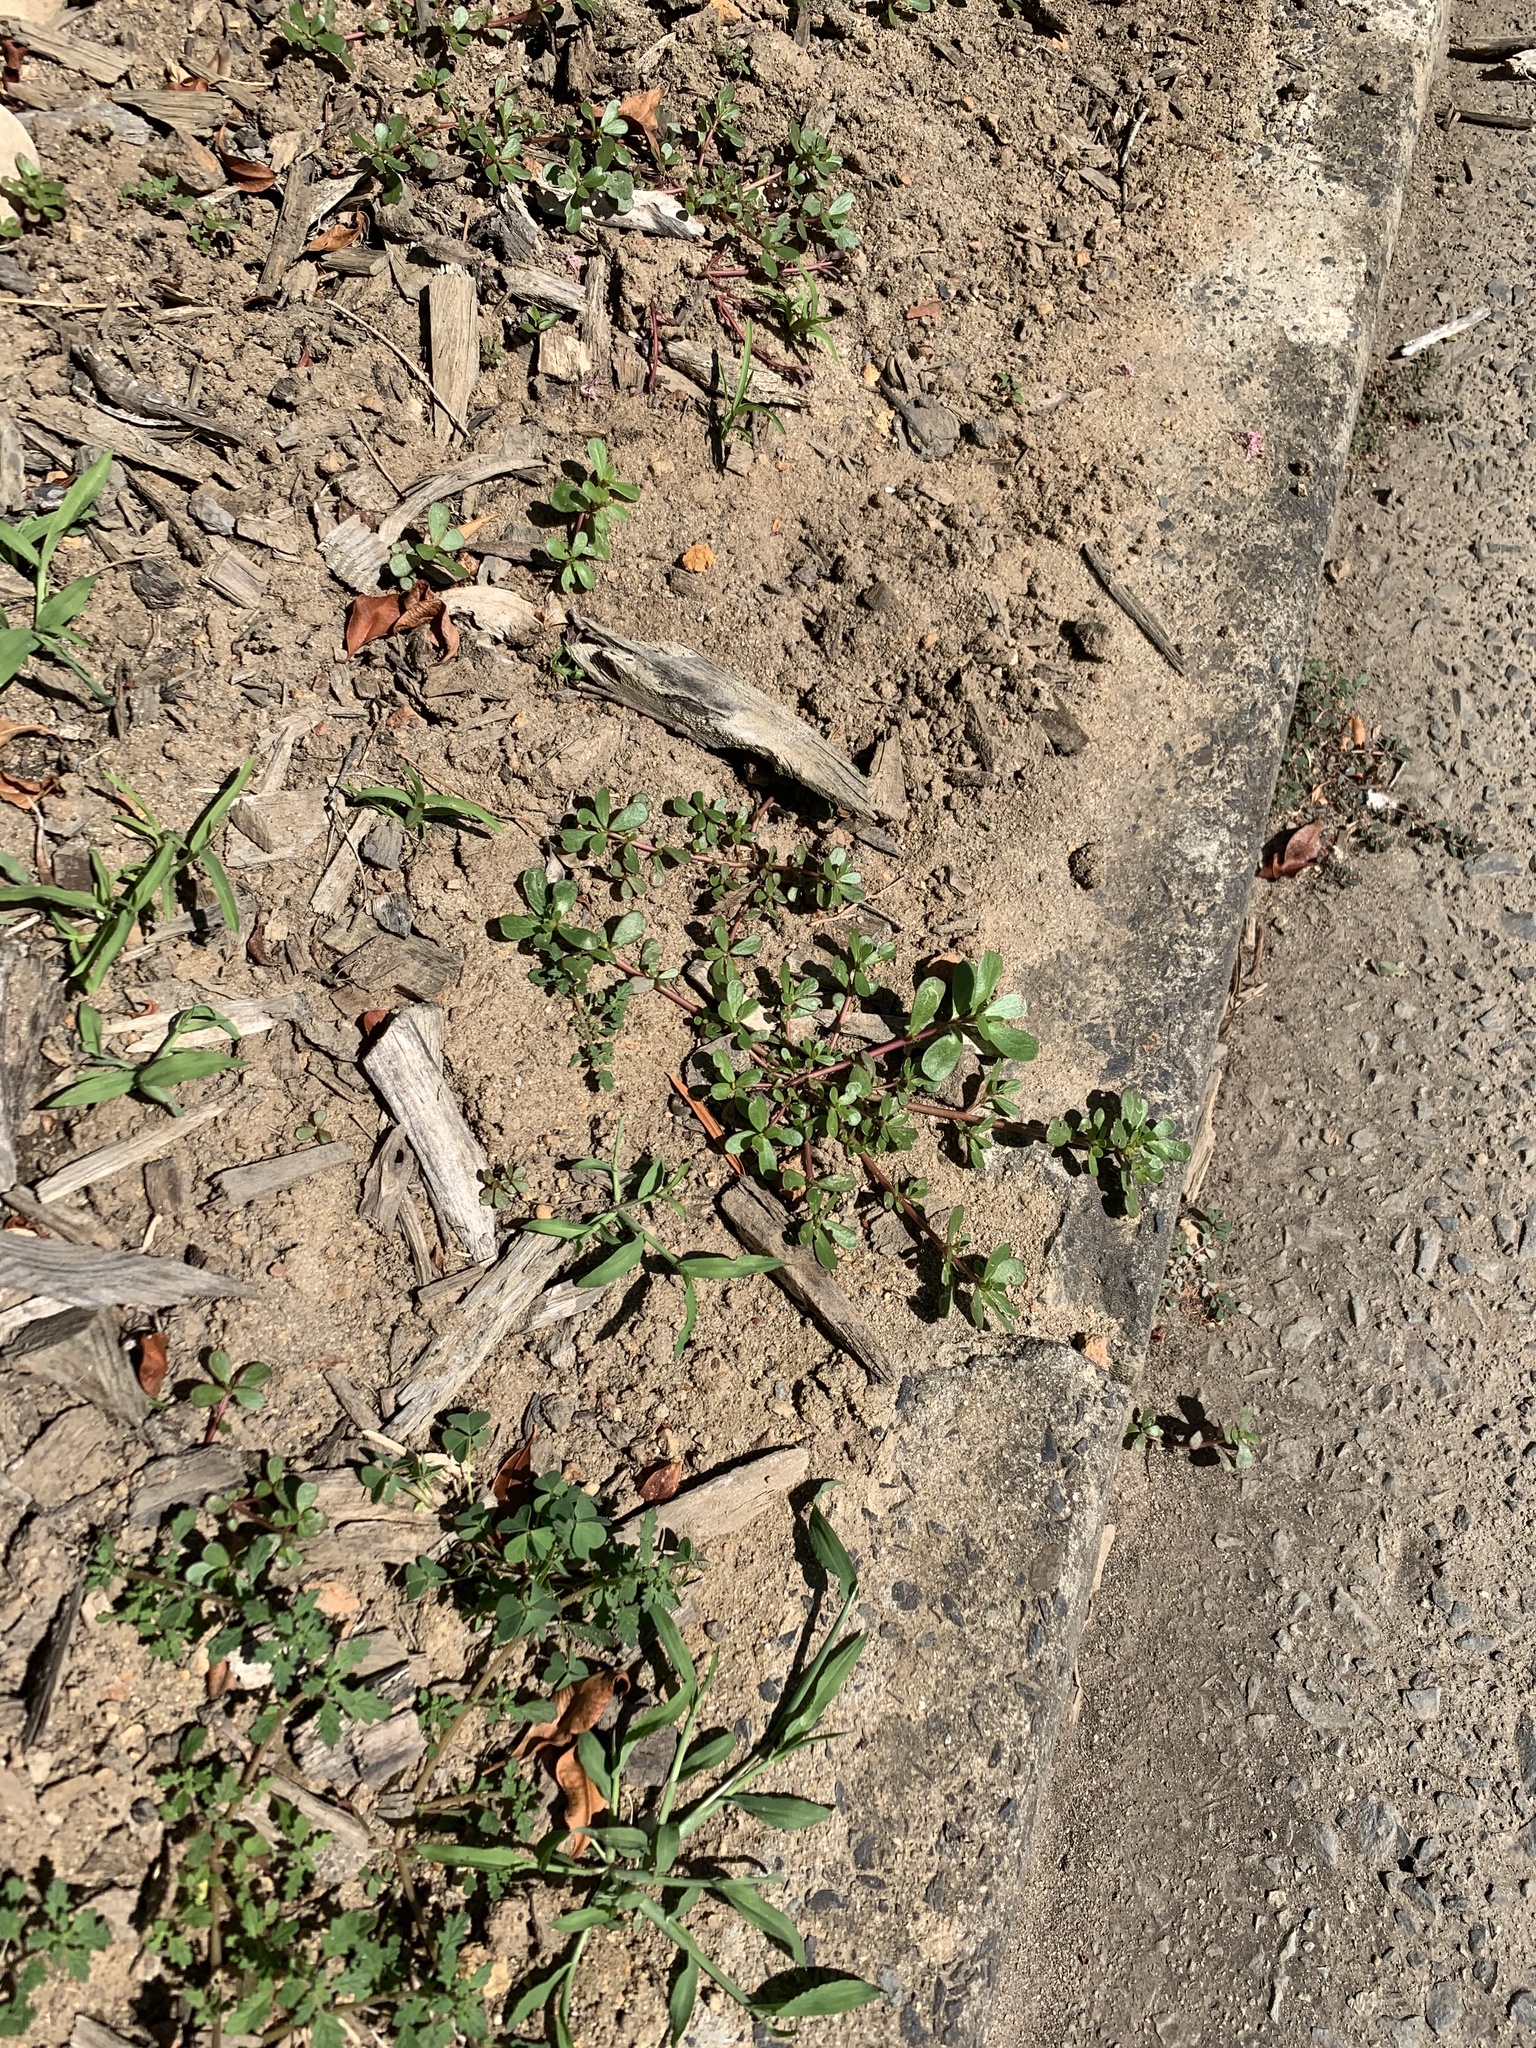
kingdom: Plantae
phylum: Tracheophyta
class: Magnoliopsida
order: Caryophyllales
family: Portulacaceae
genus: Portulaca
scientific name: Portulaca oleracea
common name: Common purslane
